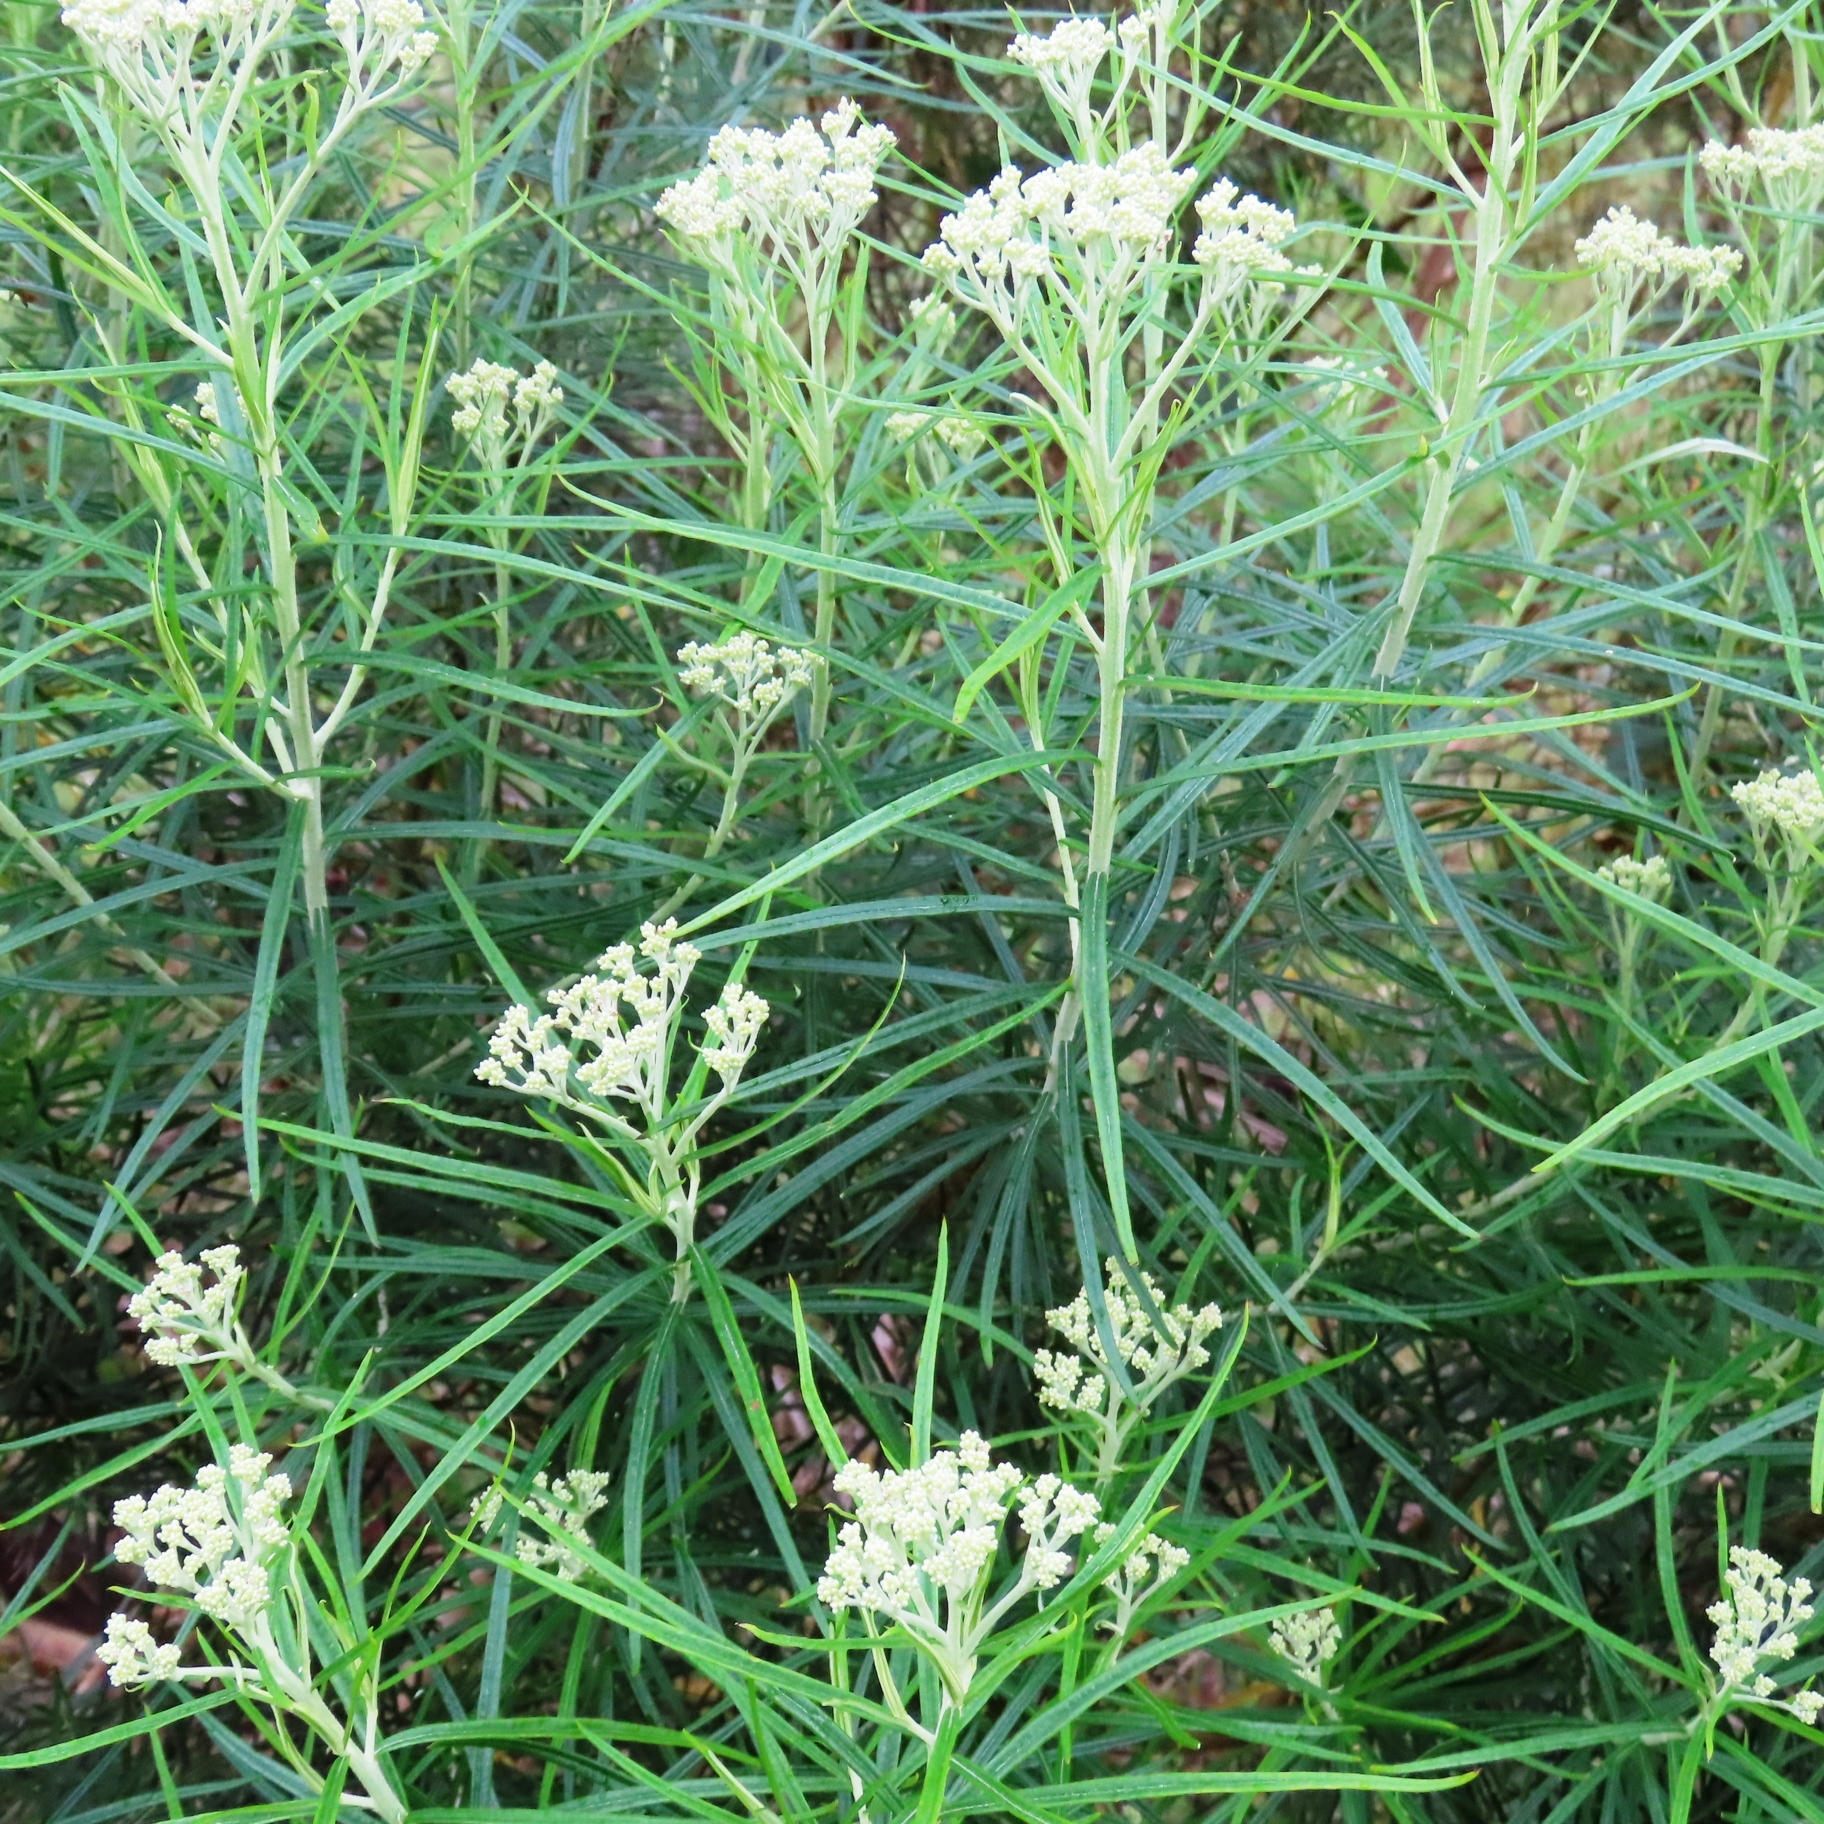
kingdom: Plantae
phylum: Tracheophyta
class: Magnoliopsida
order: Asterales
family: Asteraceae
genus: Cassinia
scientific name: Cassinia longifolia
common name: Longleaf-dogwood
